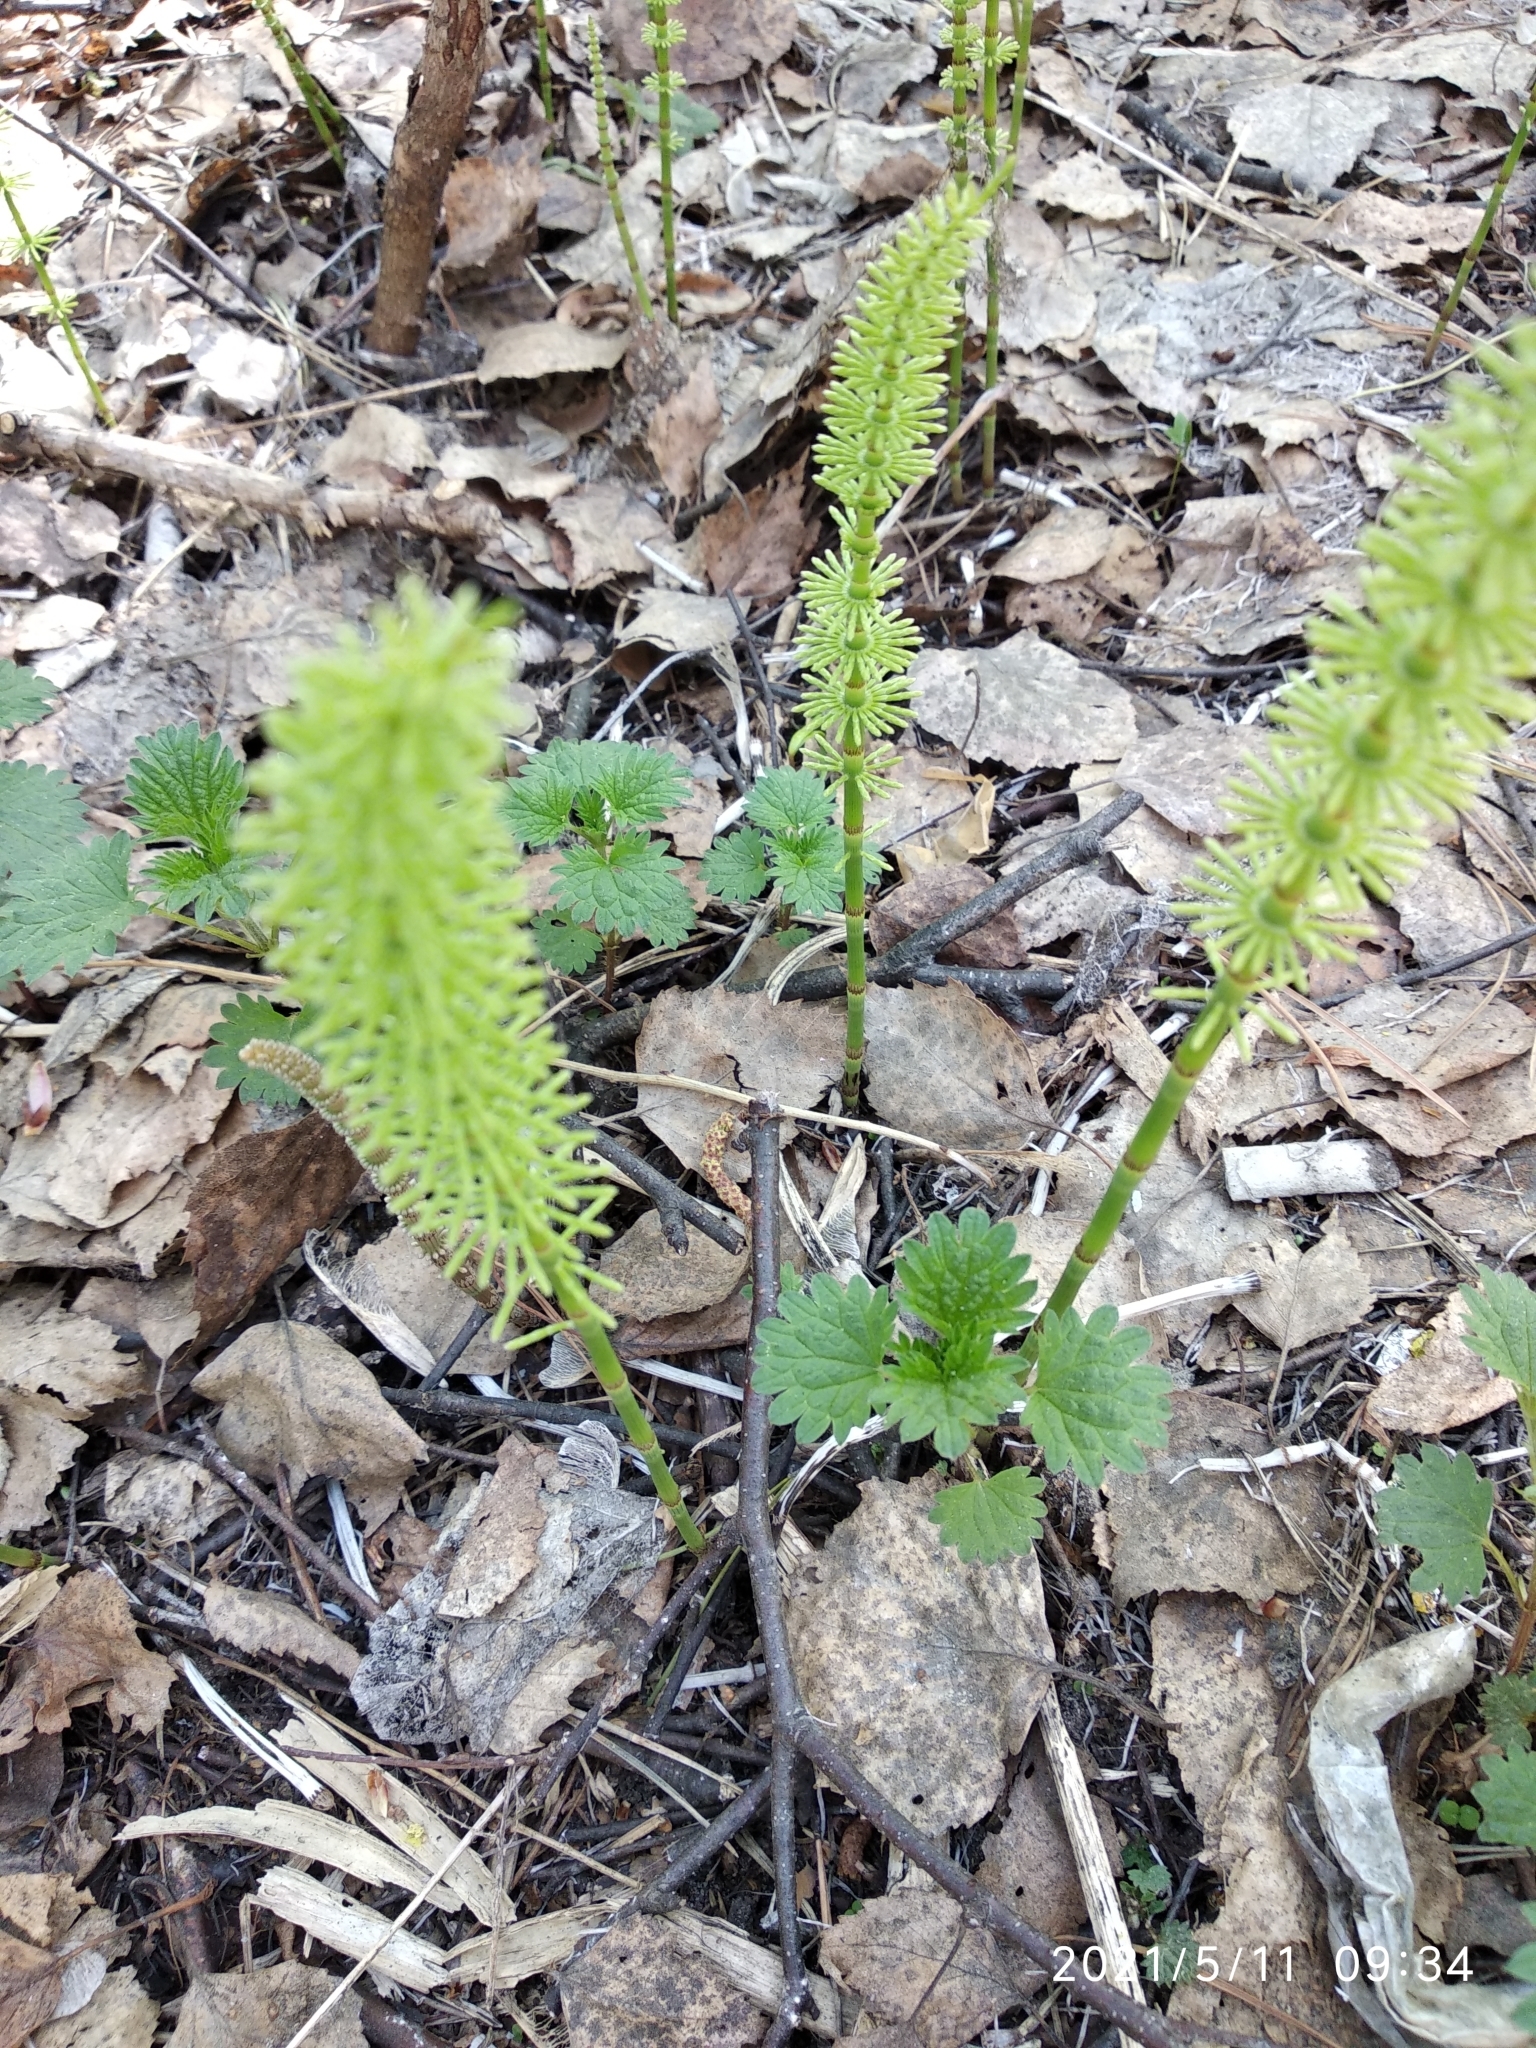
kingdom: Plantae
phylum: Tracheophyta
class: Polypodiopsida
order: Equisetales
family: Equisetaceae
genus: Equisetum
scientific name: Equisetum pratense
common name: Meadow horsetail
